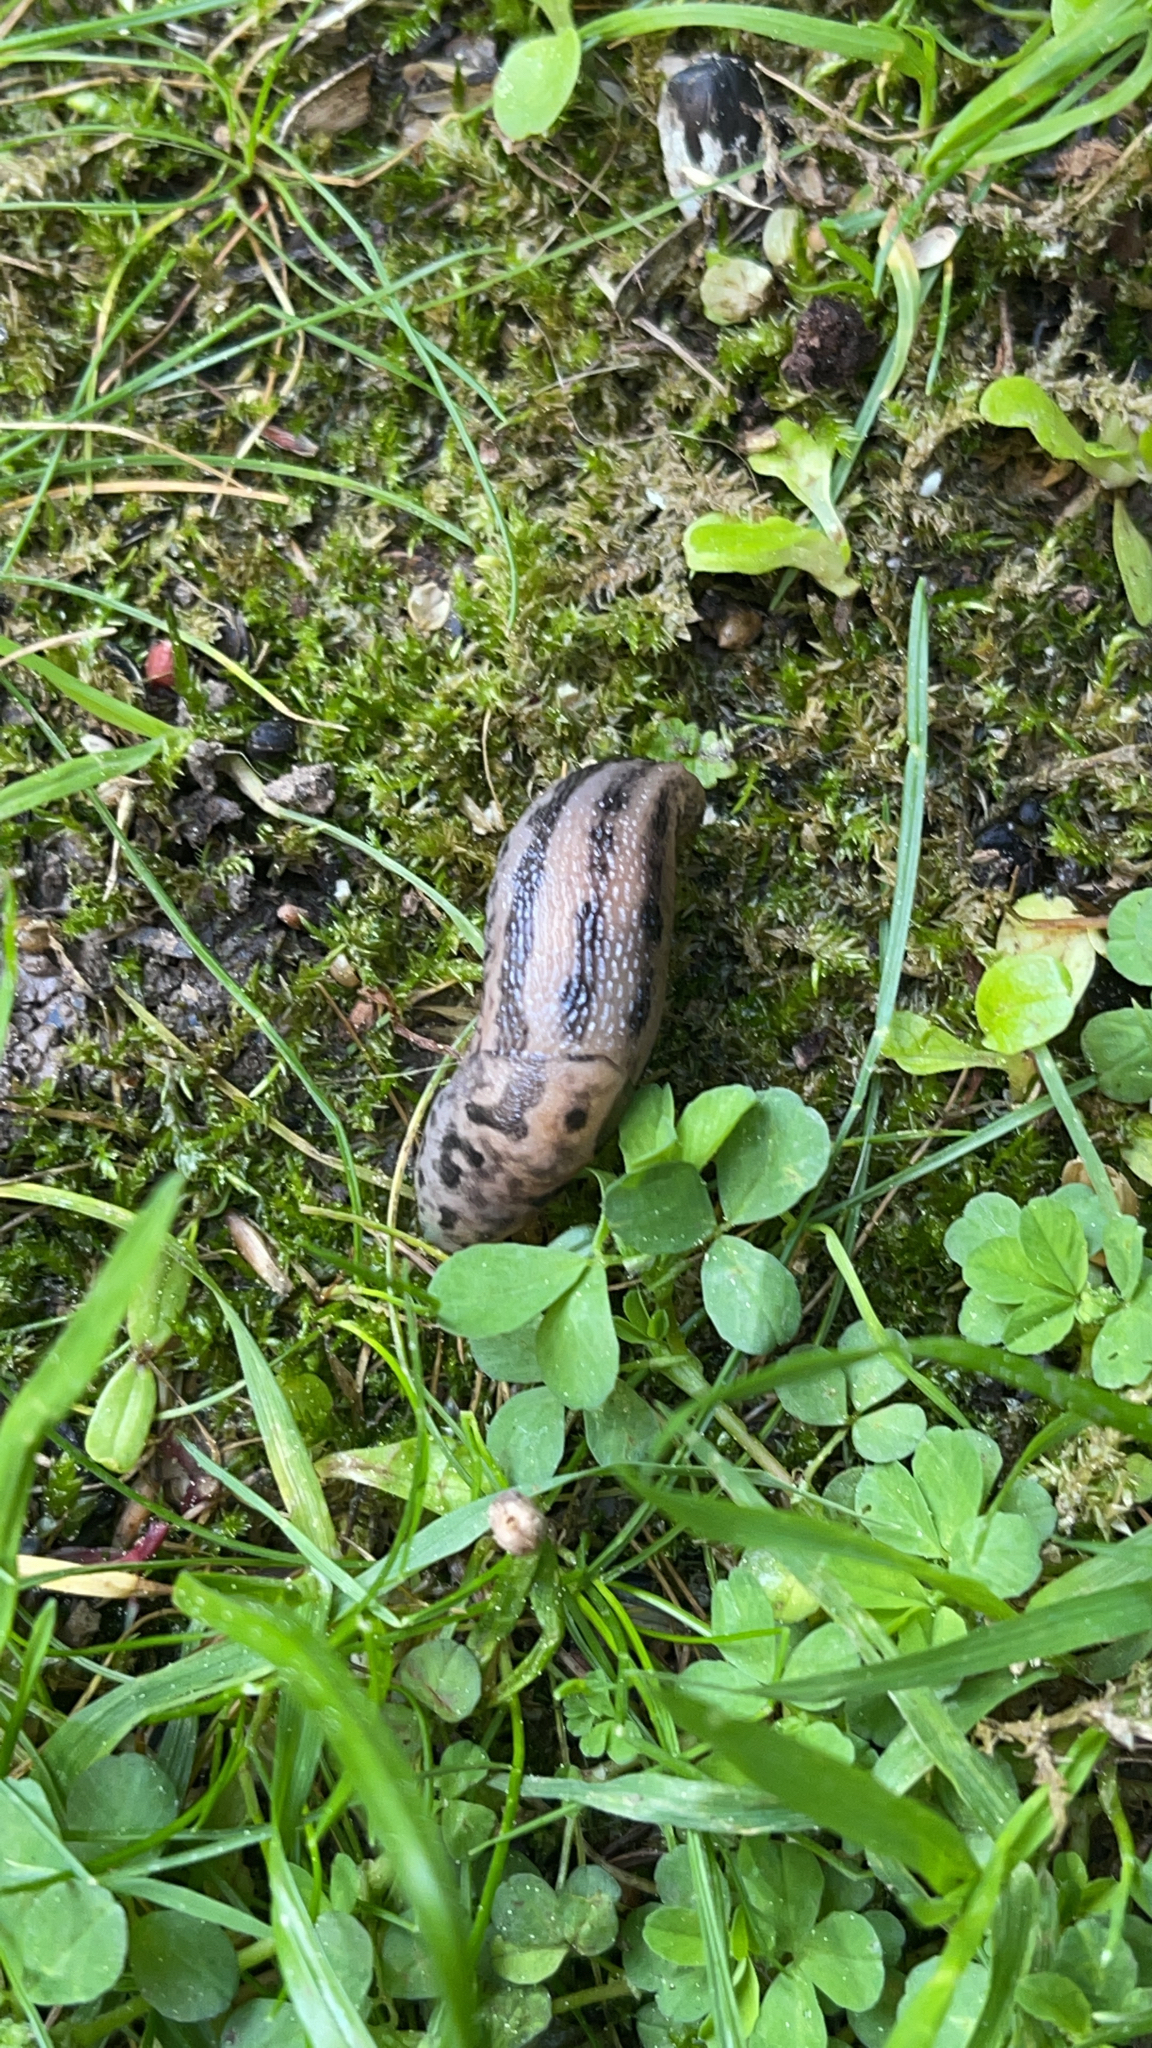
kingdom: Animalia
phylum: Mollusca
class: Gastropoda
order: Stylommatophora
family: Limacidae
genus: Limax
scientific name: Limax maximus
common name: Great grey slug
